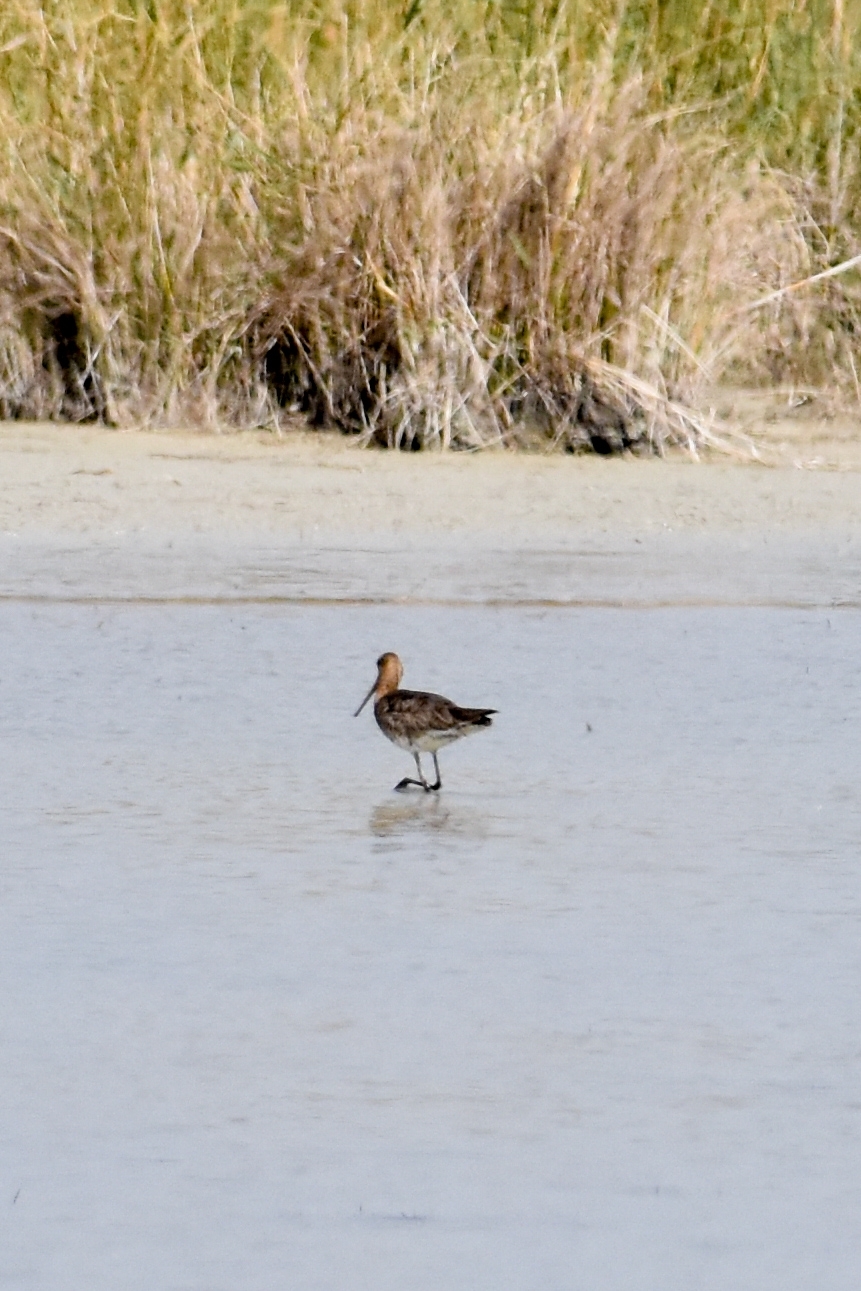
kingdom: Animalia
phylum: Chordata
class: Aves
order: Charadriiformes
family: Scolopacidae
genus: Limosa
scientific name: Limosa limosa
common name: Black-tailed godwit
